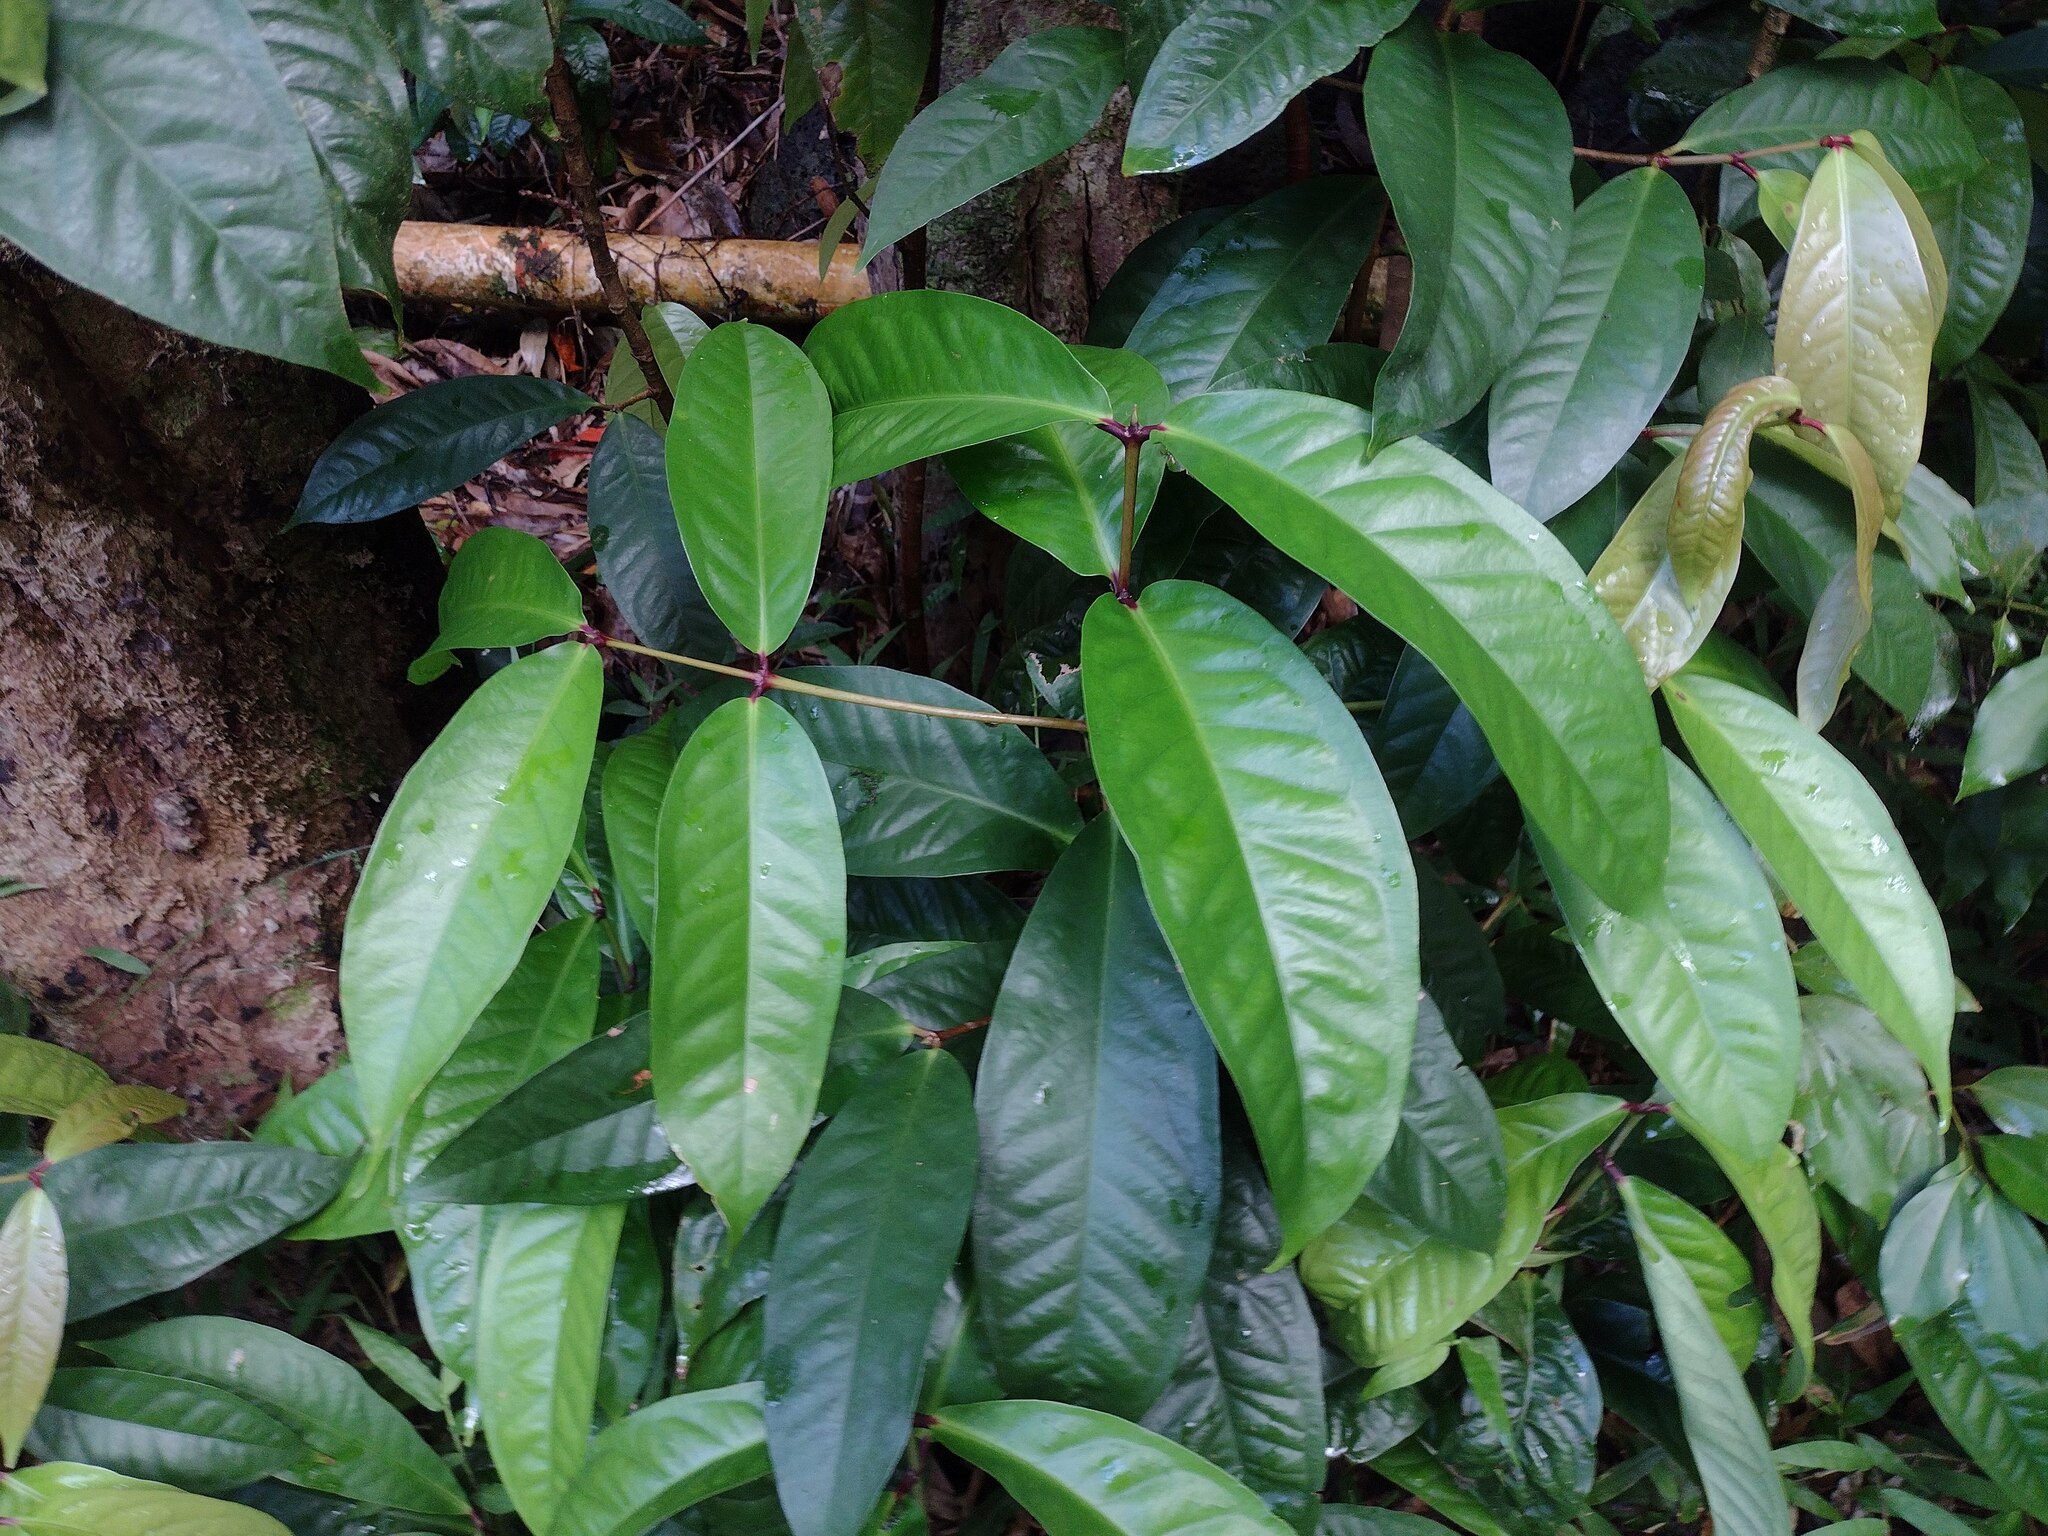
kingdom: Plantae
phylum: Tracheophyta
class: Magnoliopsida
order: Myrtales
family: Myrtaceae
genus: Syzygium
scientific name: Syzygium malaccense
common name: Malaysian apple
